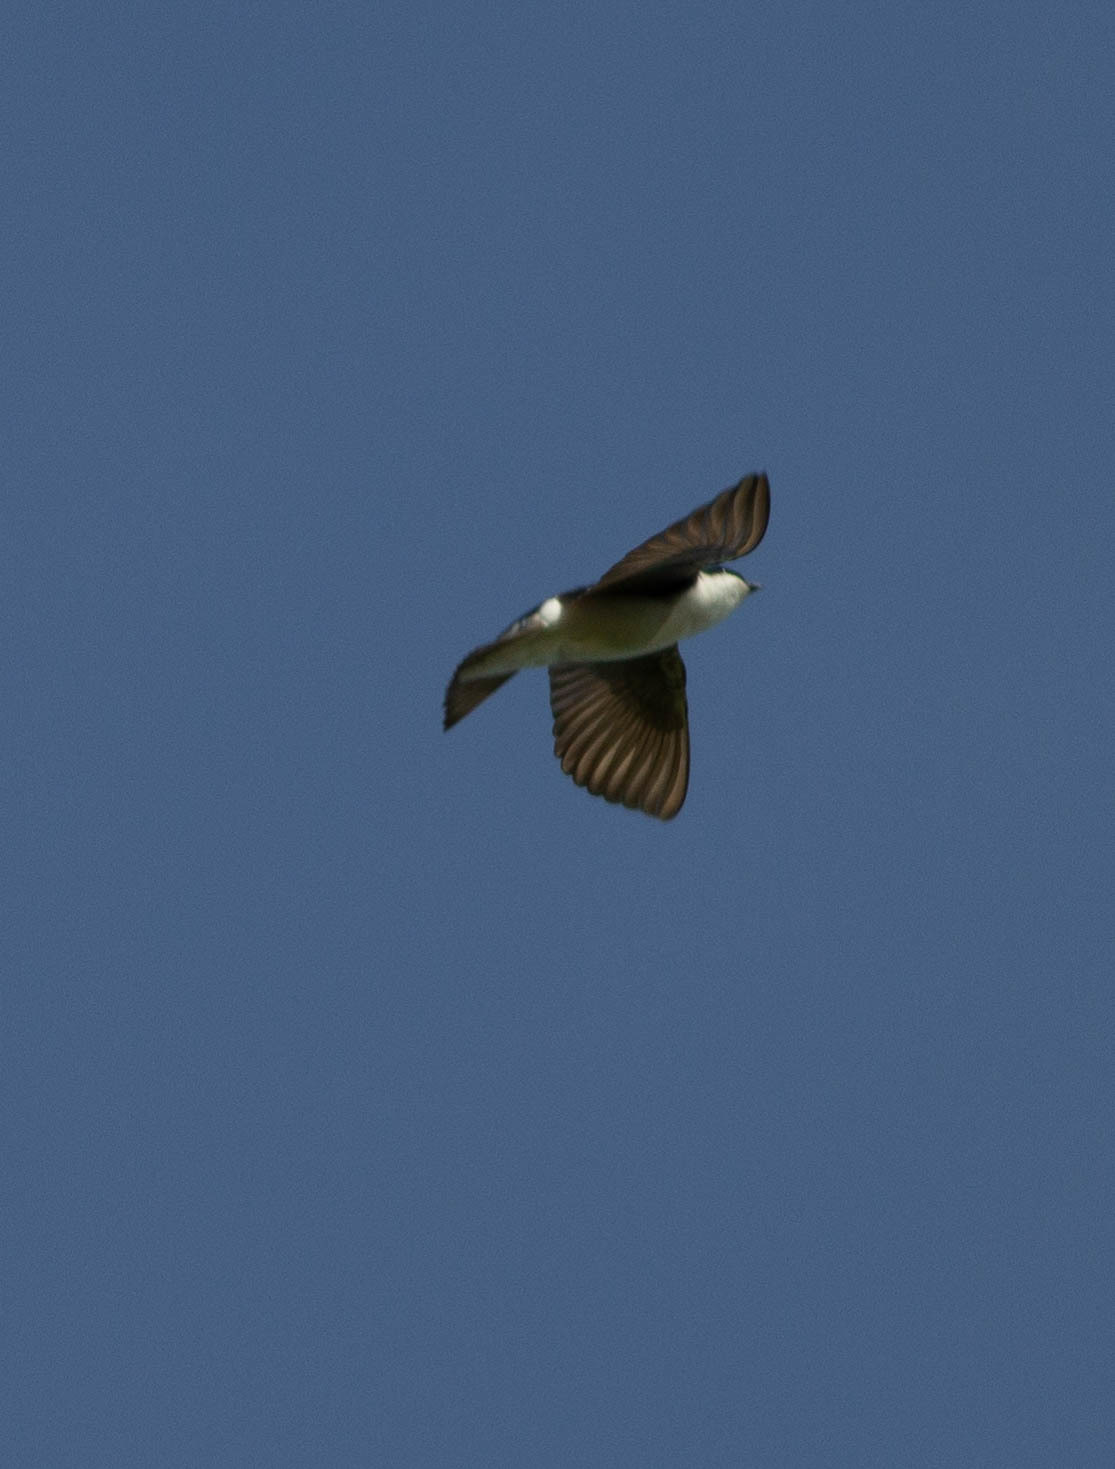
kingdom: Animalia
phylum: Chordata
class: Aves
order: Passeriformes
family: Hirundinidae
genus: Tachycineta
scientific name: Tachycineta bicolor
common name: Tree swallow
